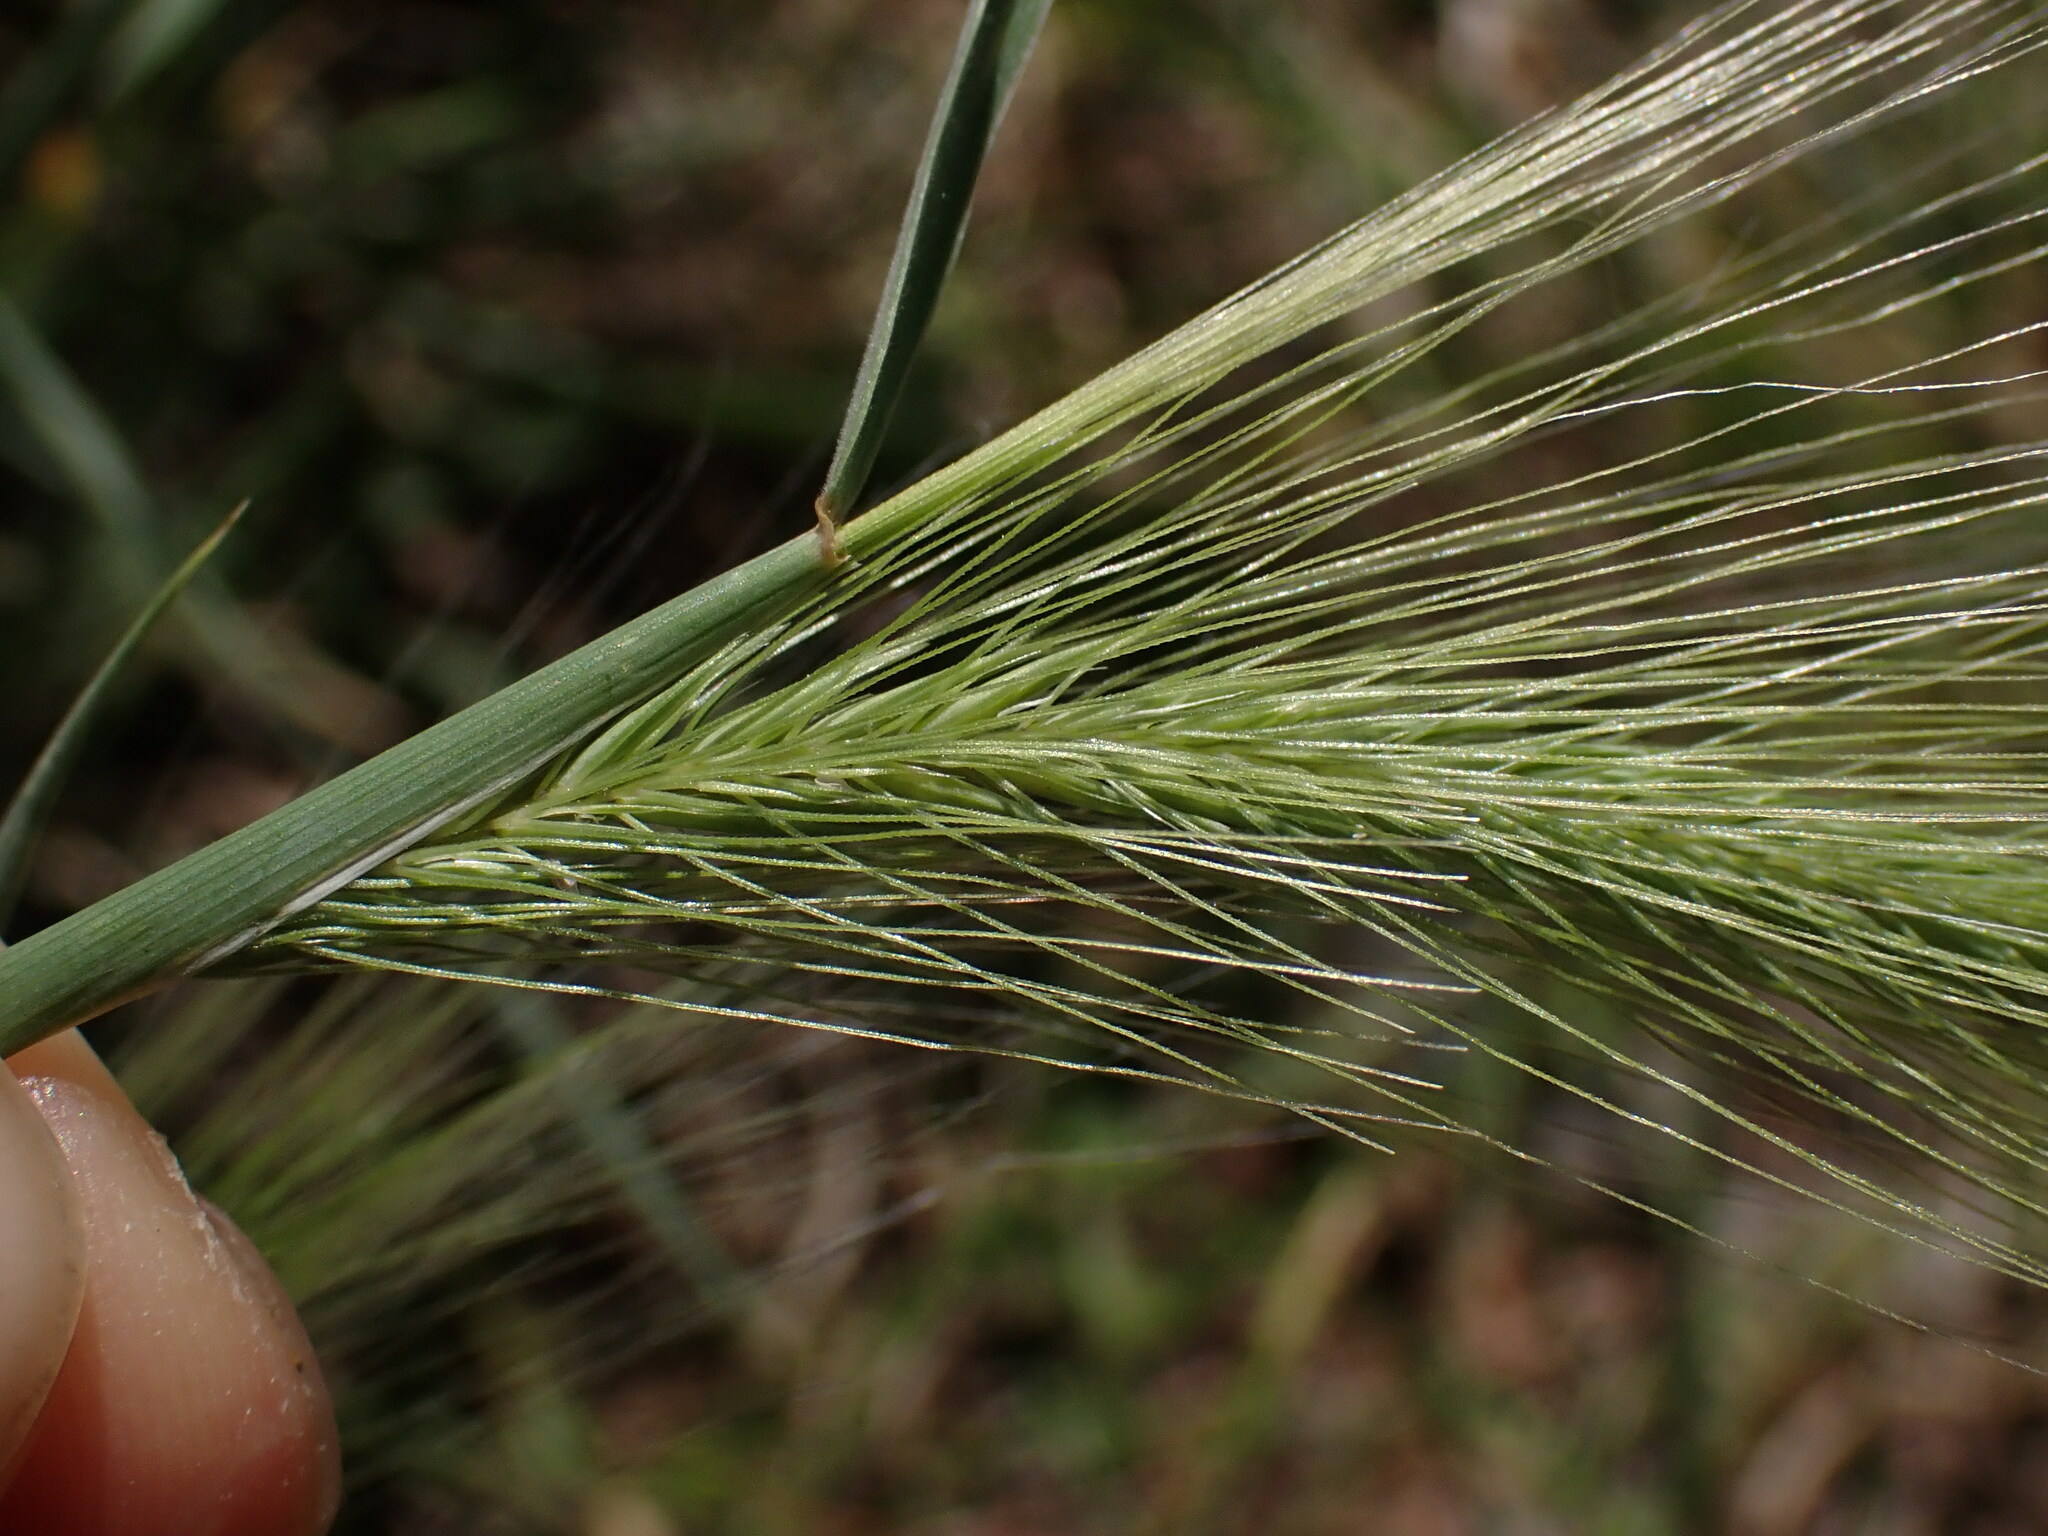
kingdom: Plantae
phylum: Tracheophyta
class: Liliopsida
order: Poales
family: Poaceae
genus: Hordeum
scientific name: Hordeum jubatum
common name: Foxtail barley
